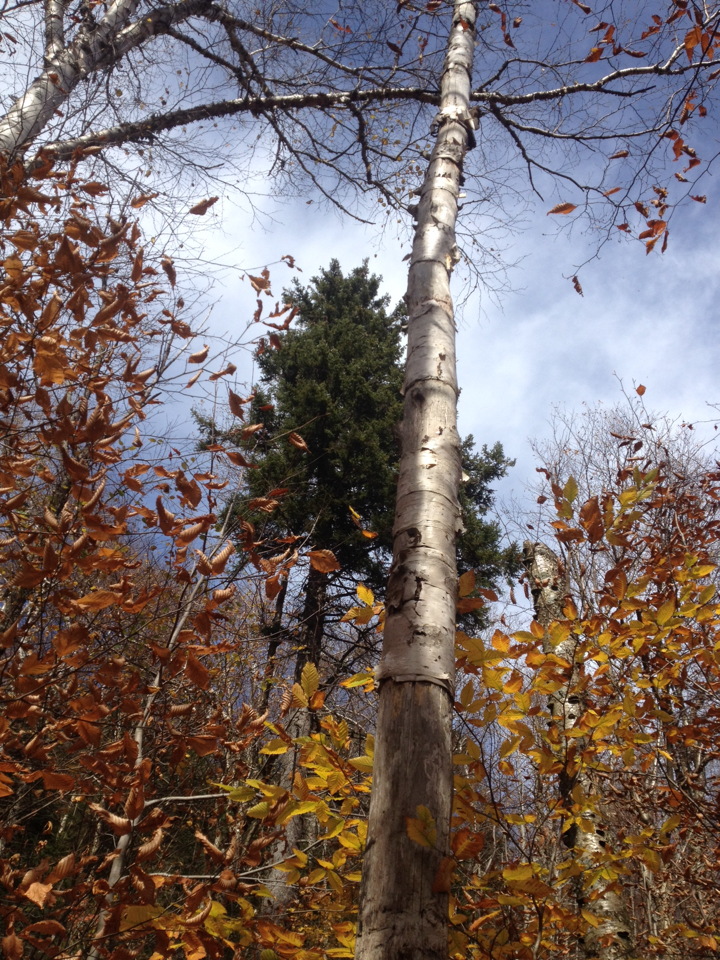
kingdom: Plantae
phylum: Tracheophyta
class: Pinopsida
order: Pinales
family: Pinaceae
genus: Picea
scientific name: Picea rubens
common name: Red spruce
